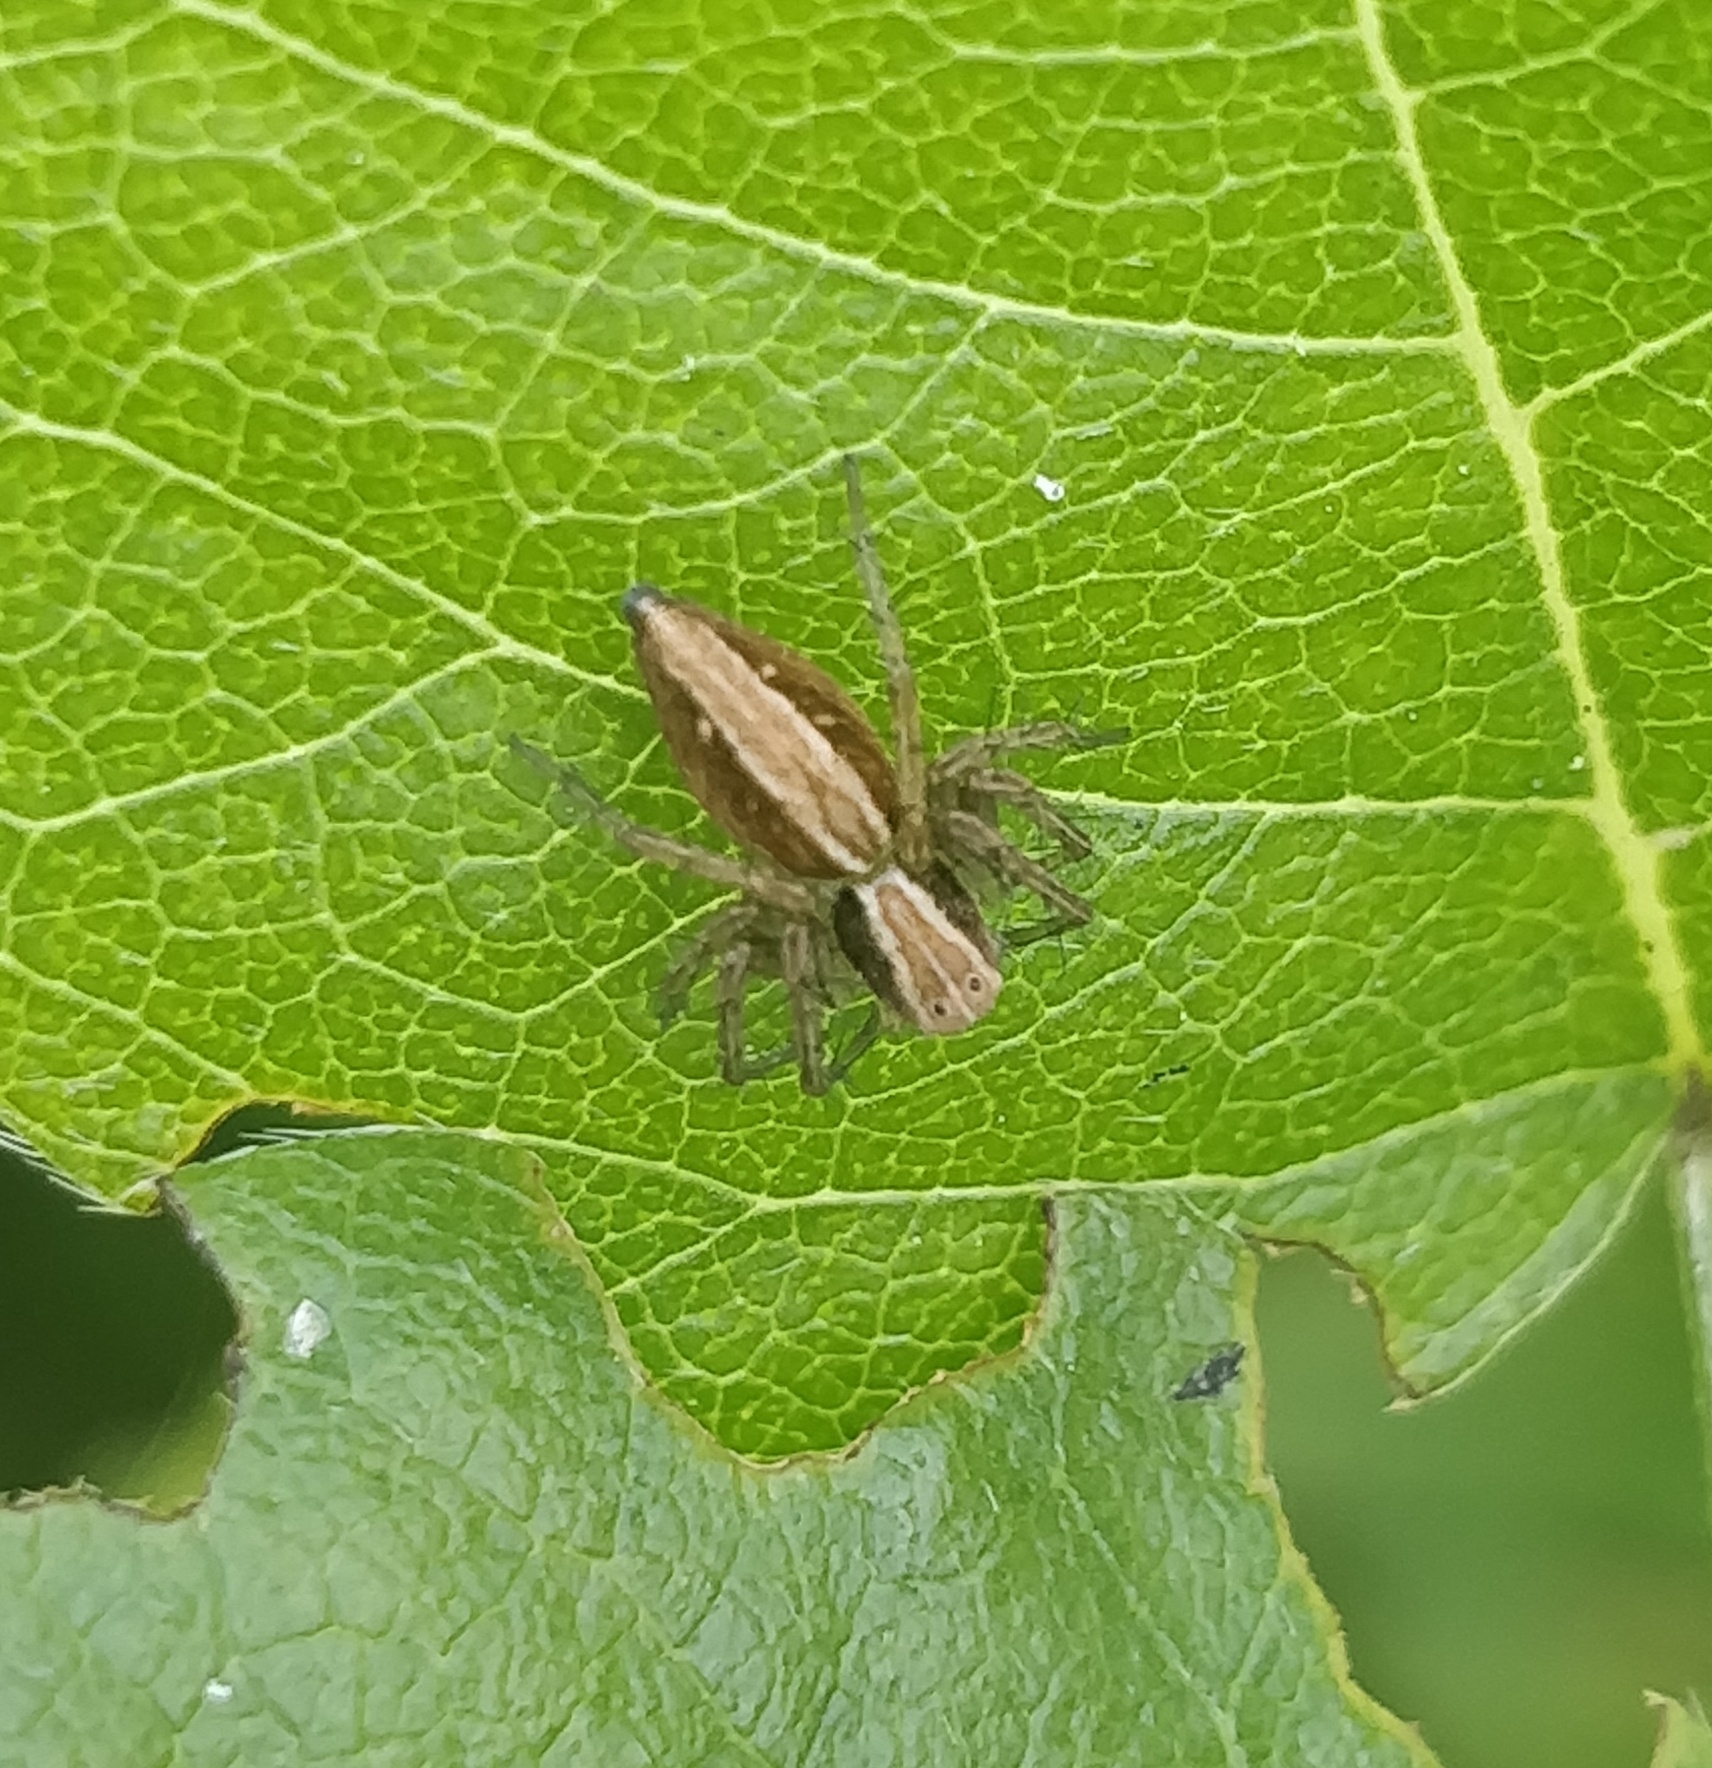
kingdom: Animalia
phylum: Arthropoda
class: Arachnida
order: Araneae
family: Oxyopidae
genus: Oxyopes
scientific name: Oxyopes kraepelinorum
